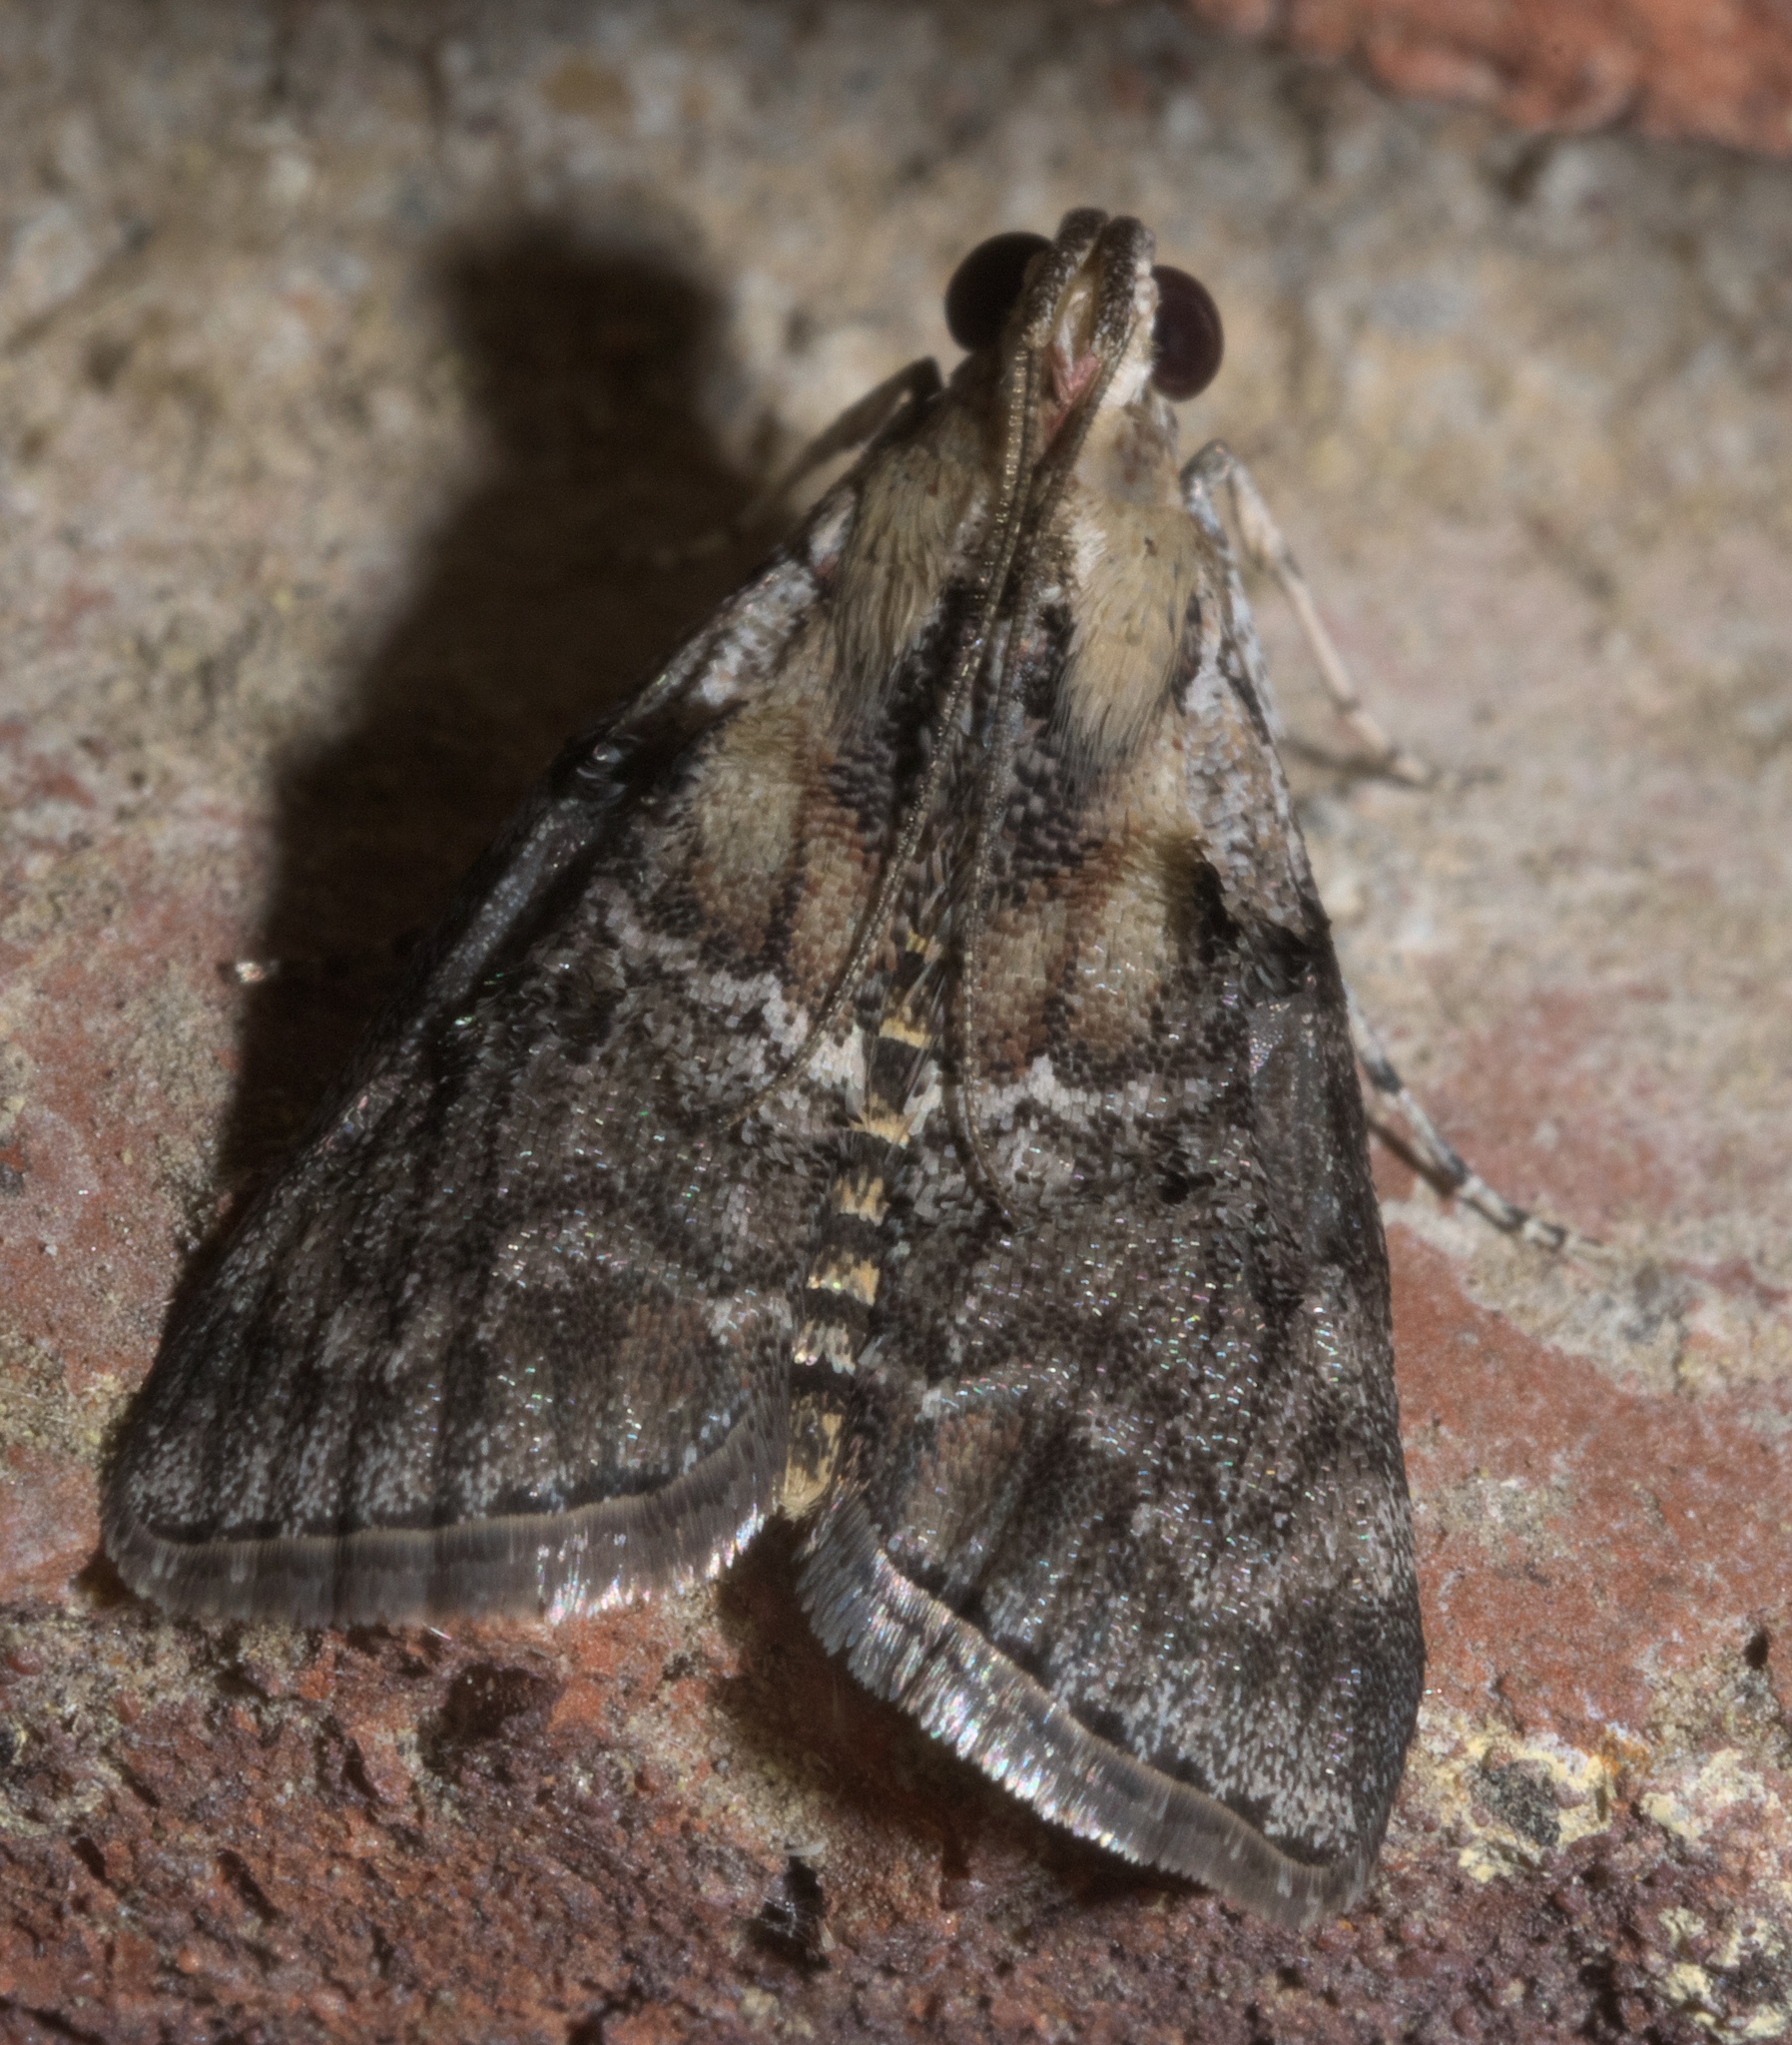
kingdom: Animalia
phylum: Arthropoda
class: Insecta
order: Lepidoptera
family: Pyralidae
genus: Pococera
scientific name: Pococera expandens
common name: Striped oak webworm moth
